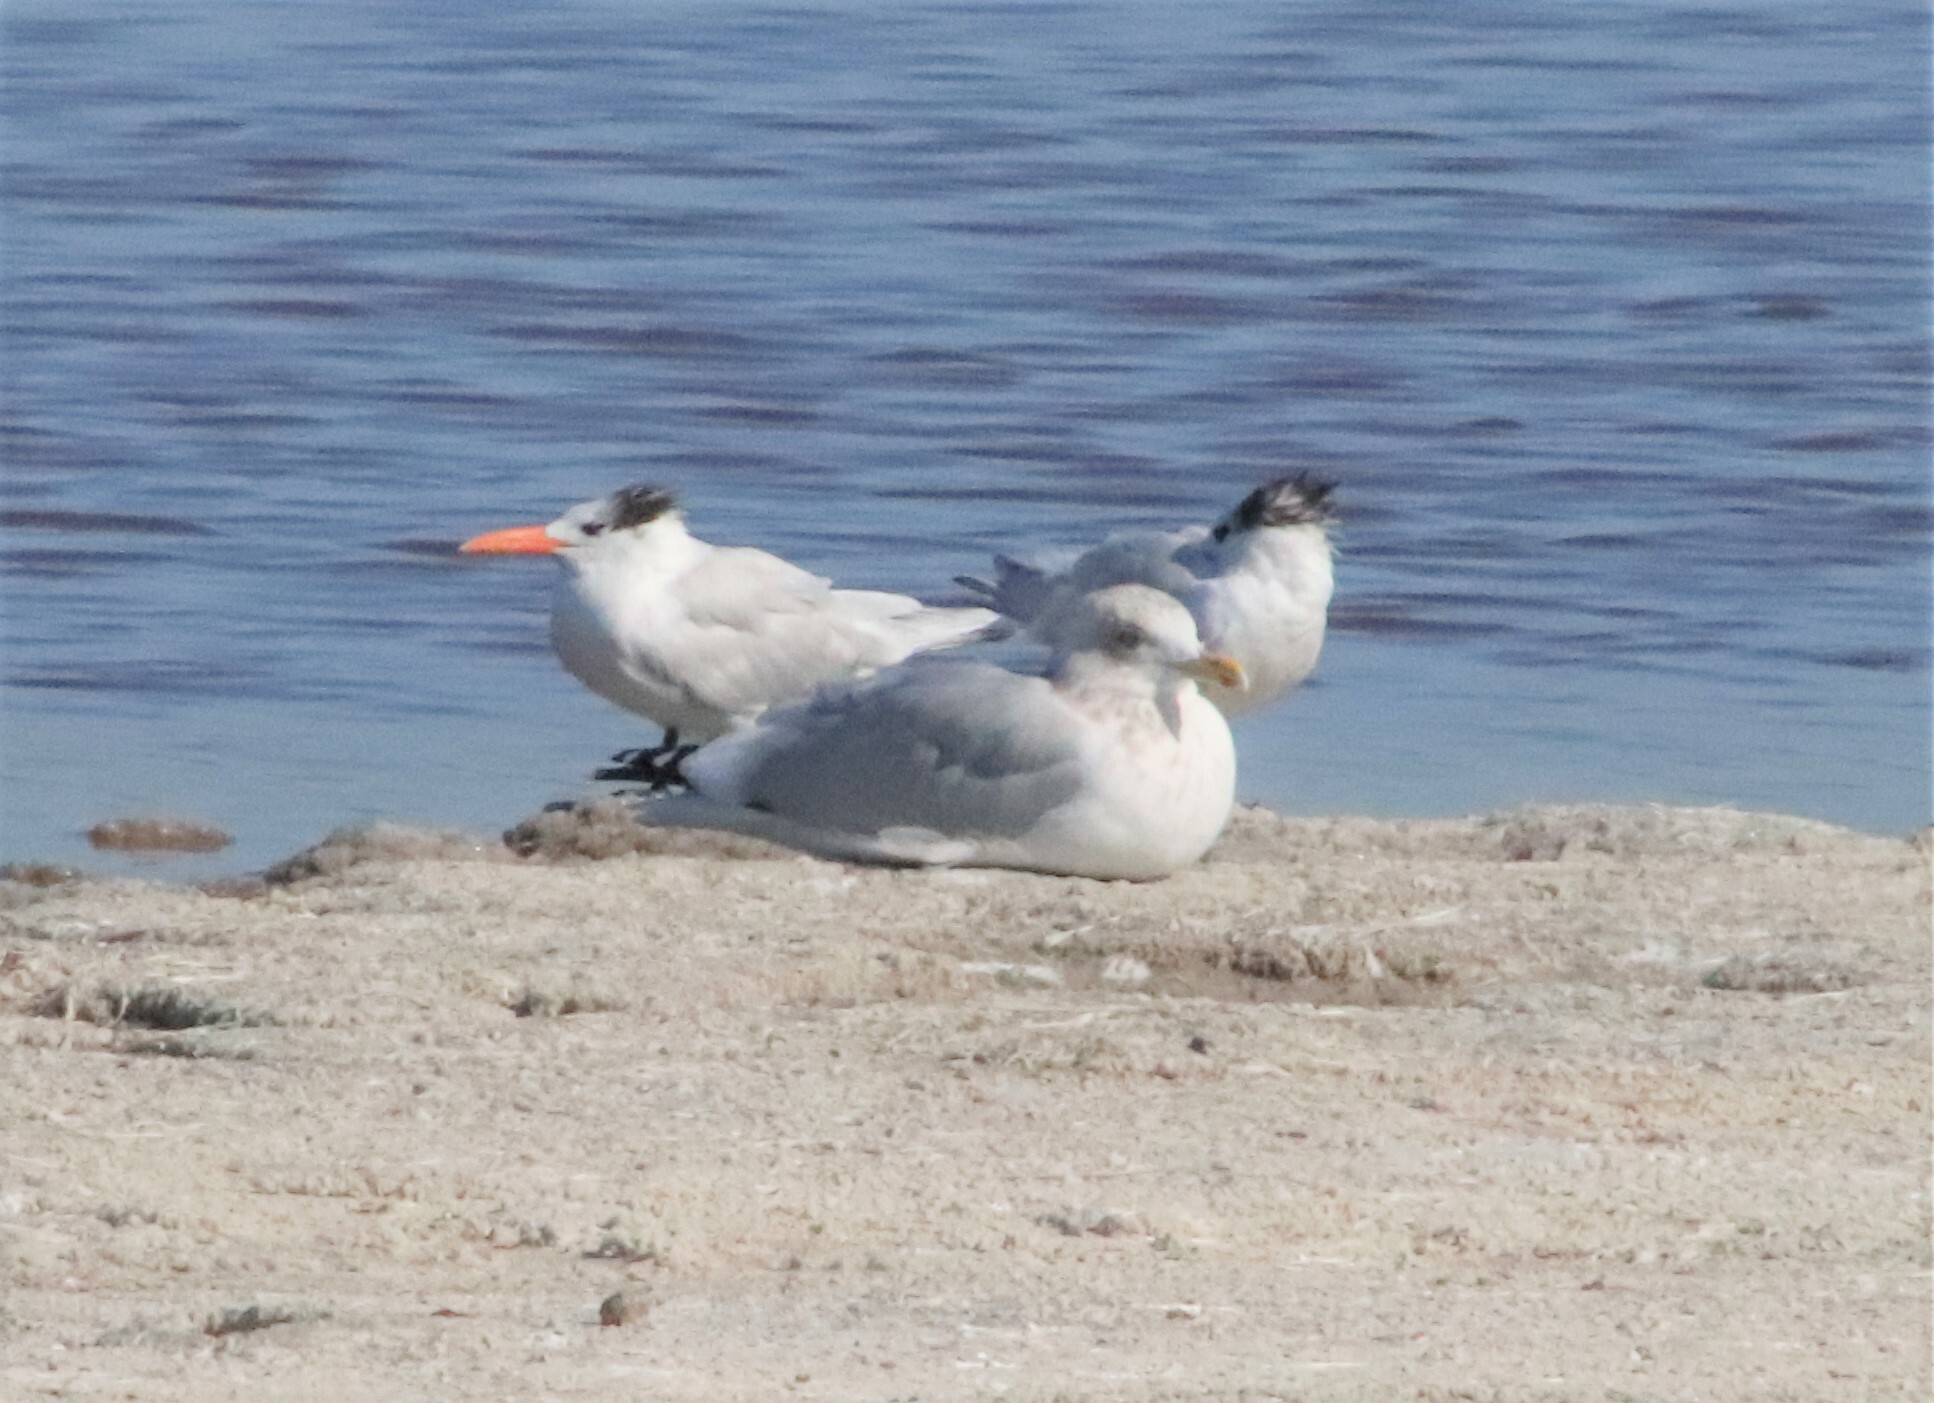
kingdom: Animalia
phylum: Chordata
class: Aves
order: Charadriiformes
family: Laridae
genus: Larus
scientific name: Larus argentatus
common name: Herring gull
